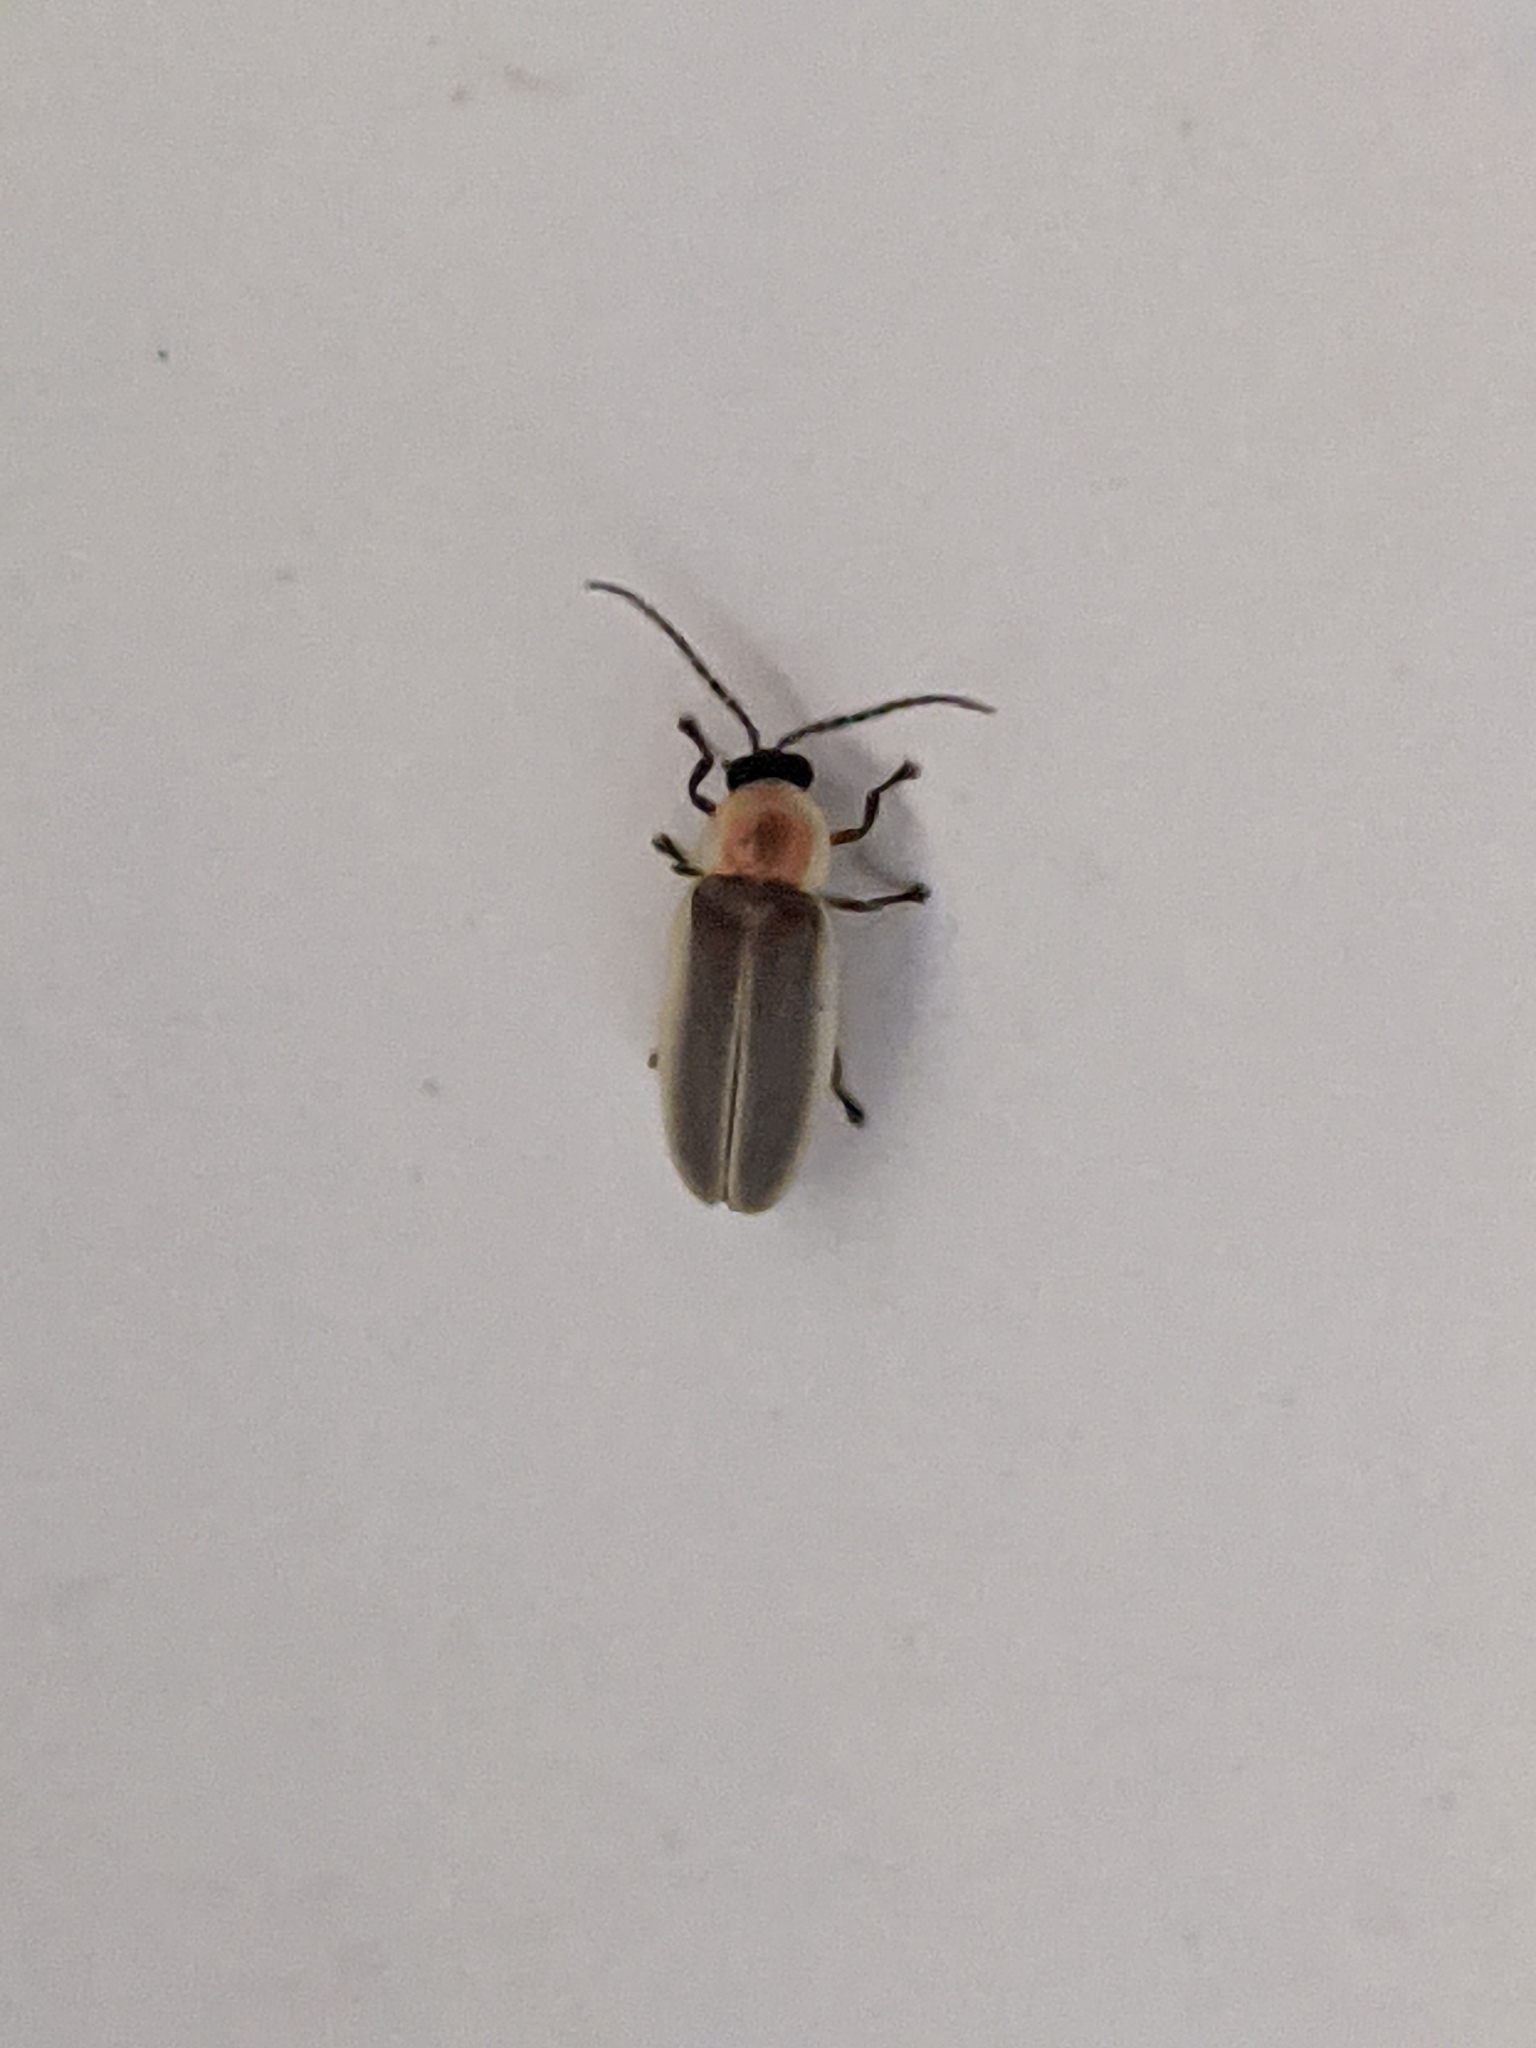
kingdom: Animalia
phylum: Arthropoda
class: Insecta
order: Coleoptera
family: Lampyridae
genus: Photinus
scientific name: Photinus pyralis
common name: Big dipper firefly
